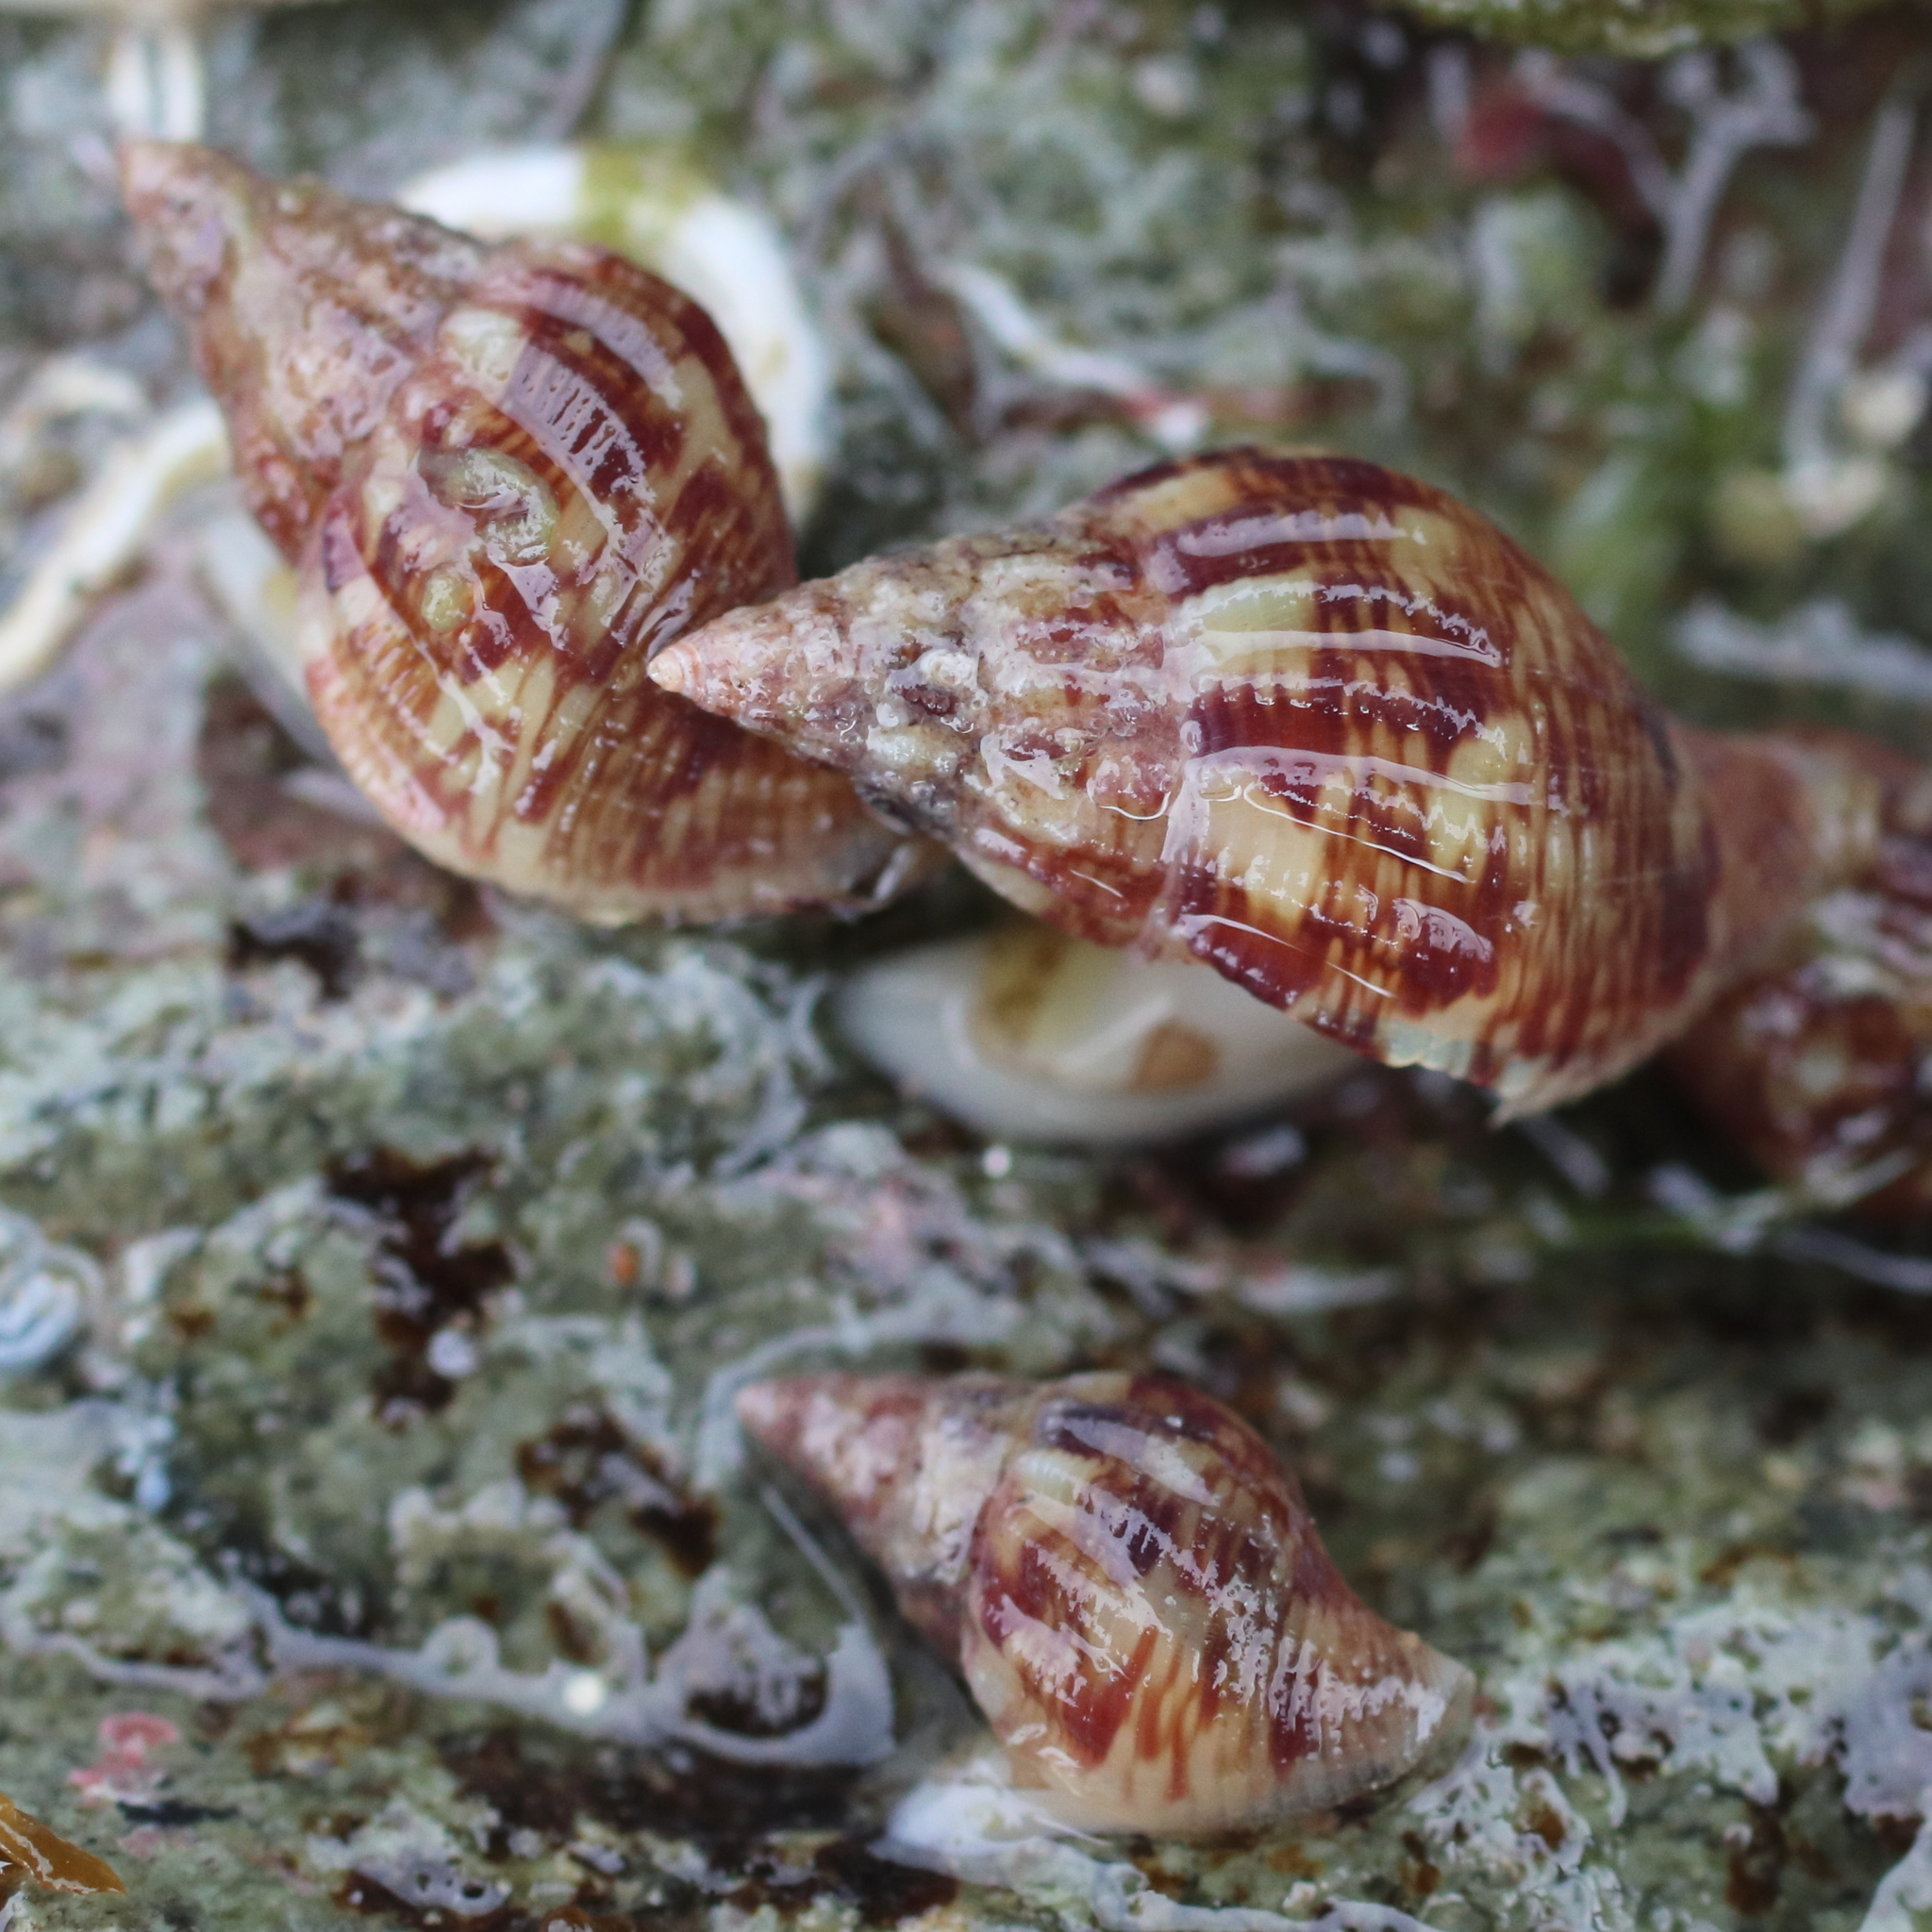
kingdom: Animalia
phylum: Mollusca
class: Gastropoda
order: Neogastropoda
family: Columbellidae
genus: Amphissa
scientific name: Amphissa columbiana
